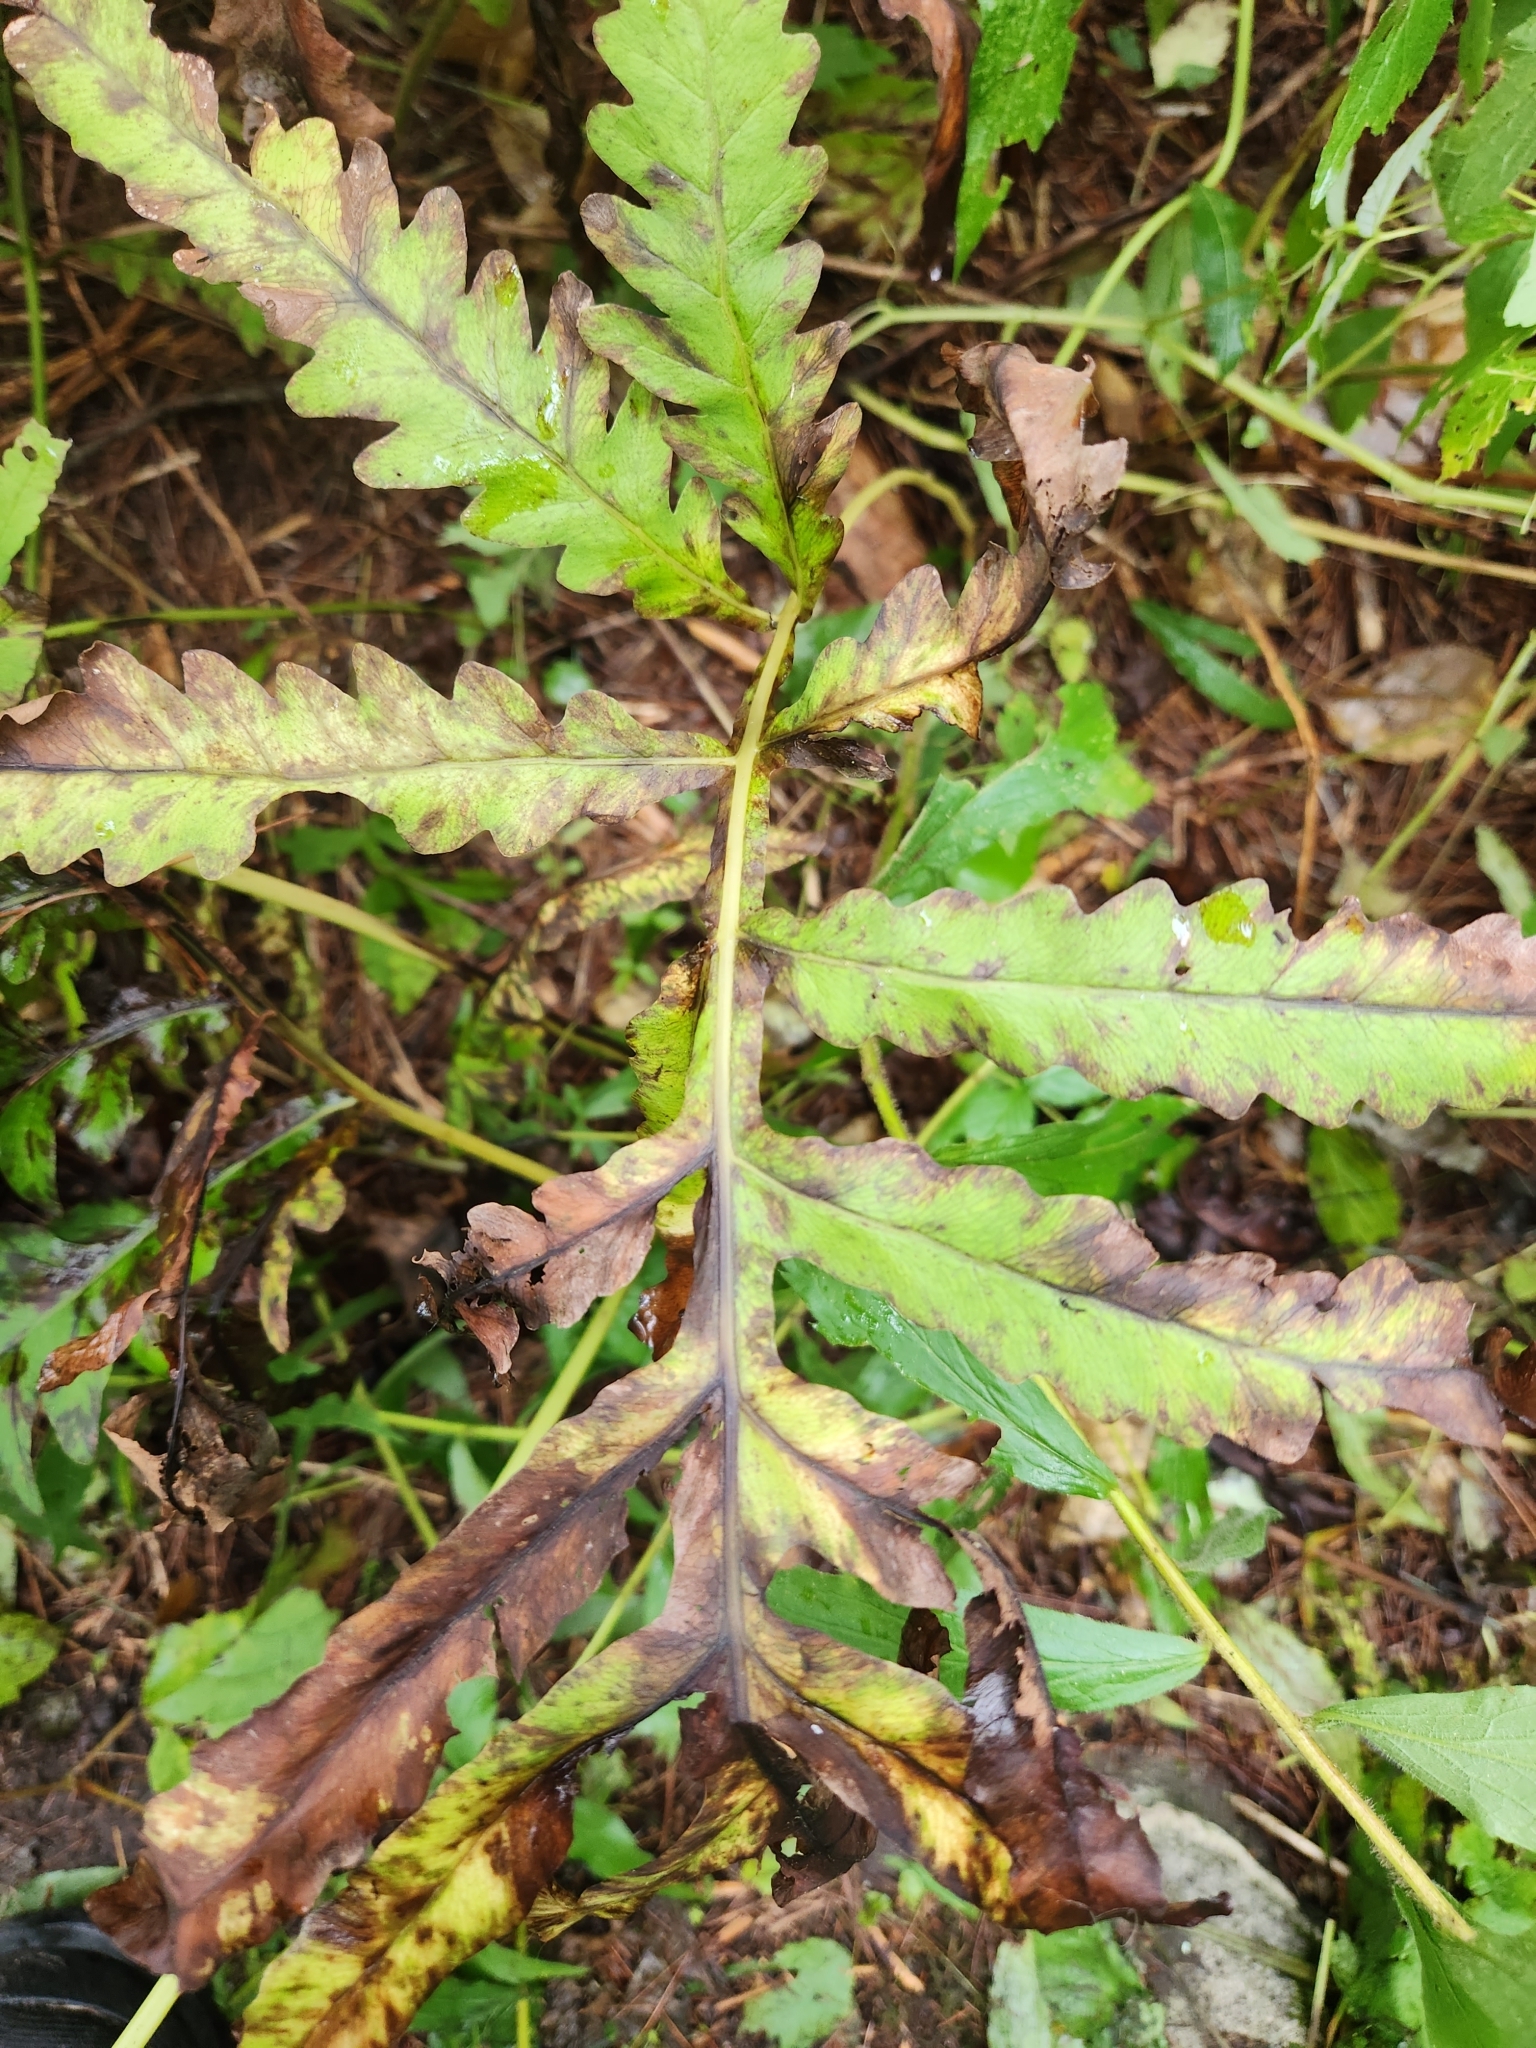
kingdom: Plantae
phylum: Tracheophyta
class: Polypodiopsida
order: Polypodiales
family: Onocleaceae
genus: Onoclea
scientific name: Onoclea sensibilis
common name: Sensitive fern
